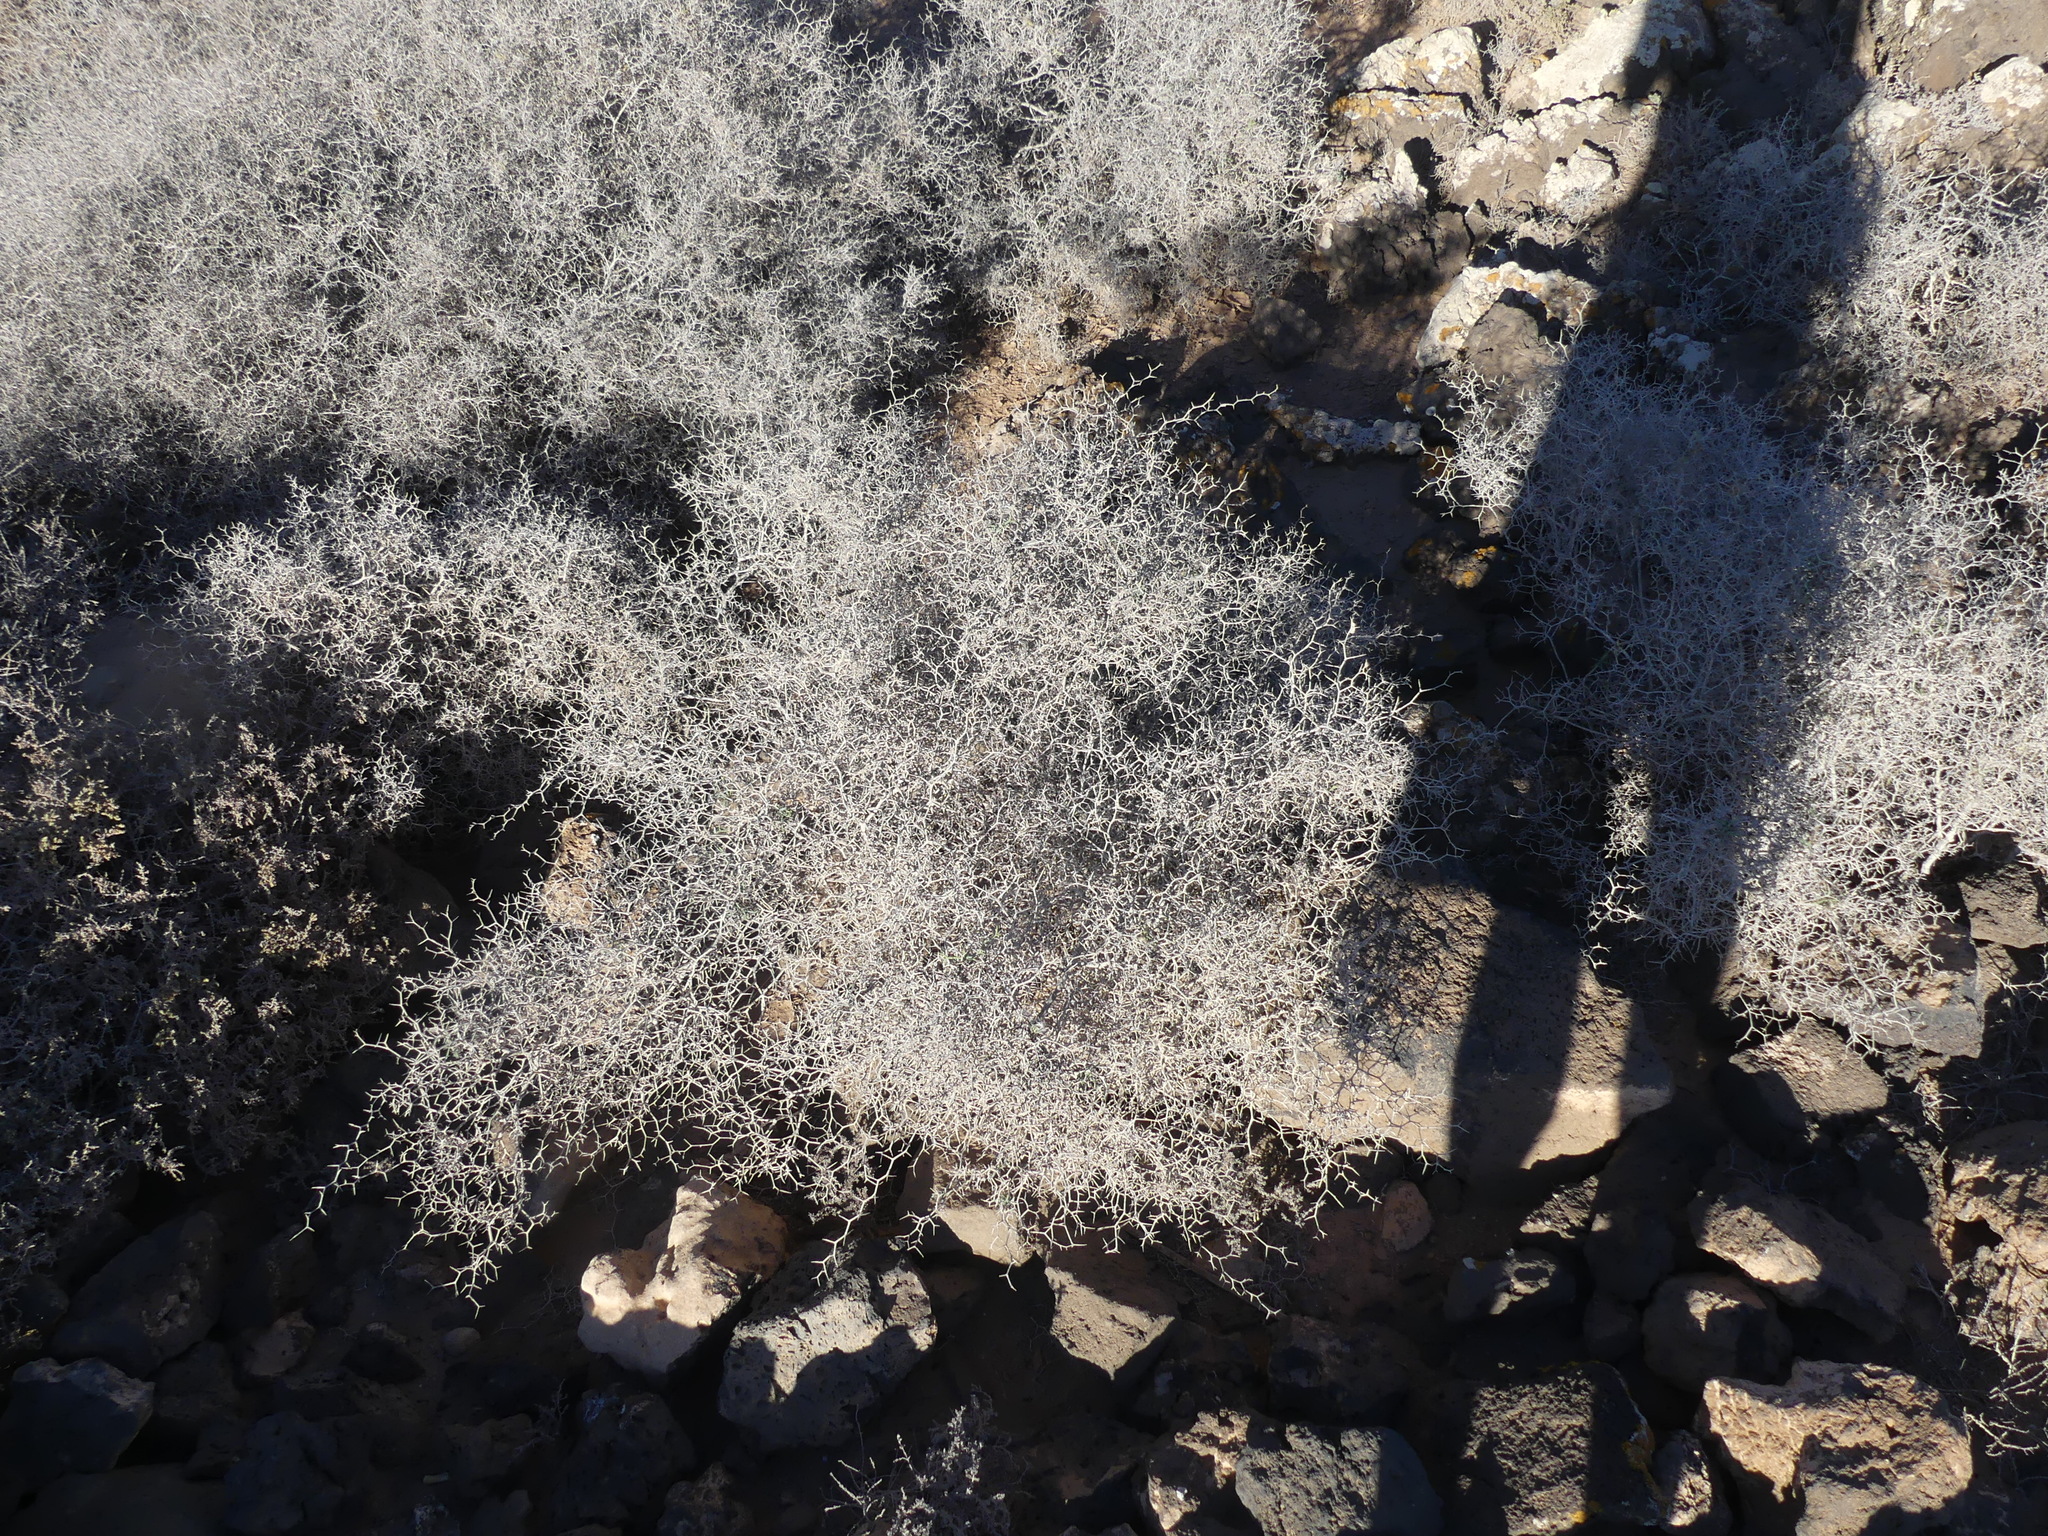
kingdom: Plantae
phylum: Tracheophyta
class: Magnoliopsida
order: Asterales
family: Asteraceae
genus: Launaea
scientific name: Launaea arborescens
